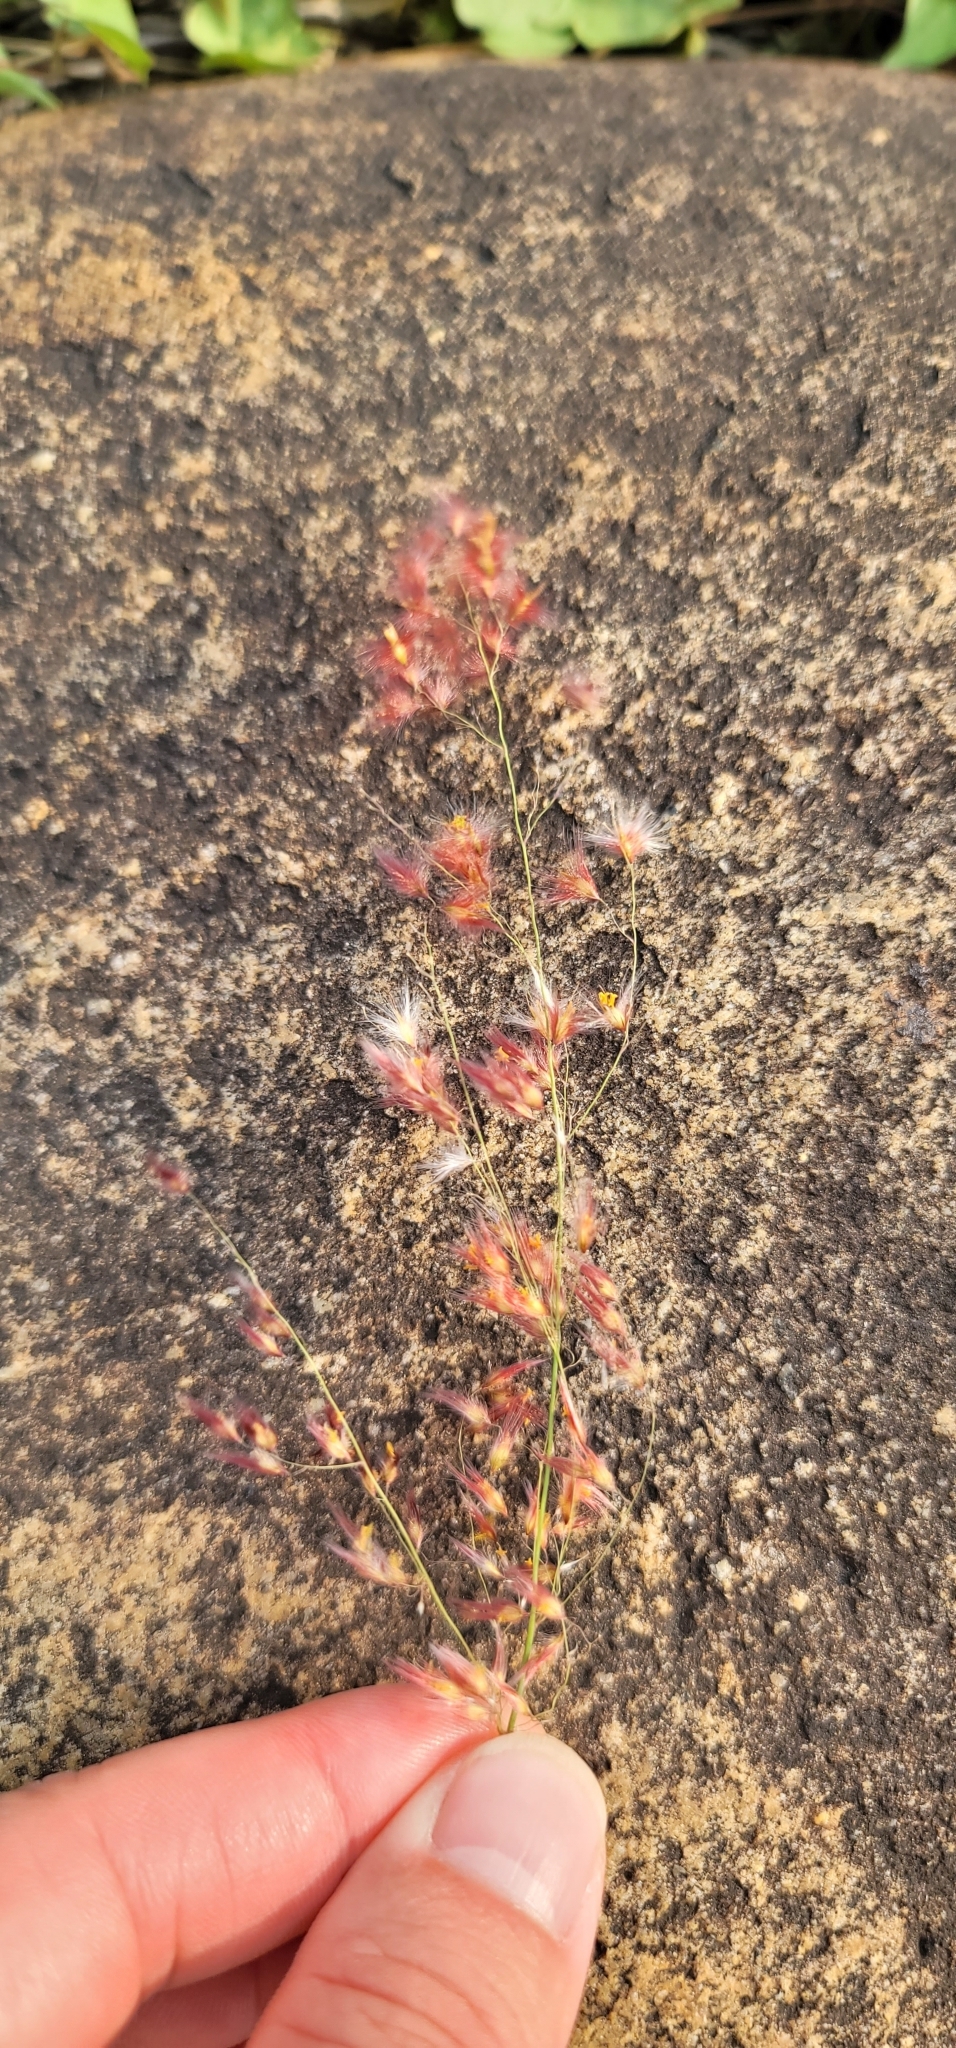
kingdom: Plantae
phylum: Tracheophyta
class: Liliopsida
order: Poales
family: Poaceae
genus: Melinis
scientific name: Melinis repens
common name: Rose natal grass
